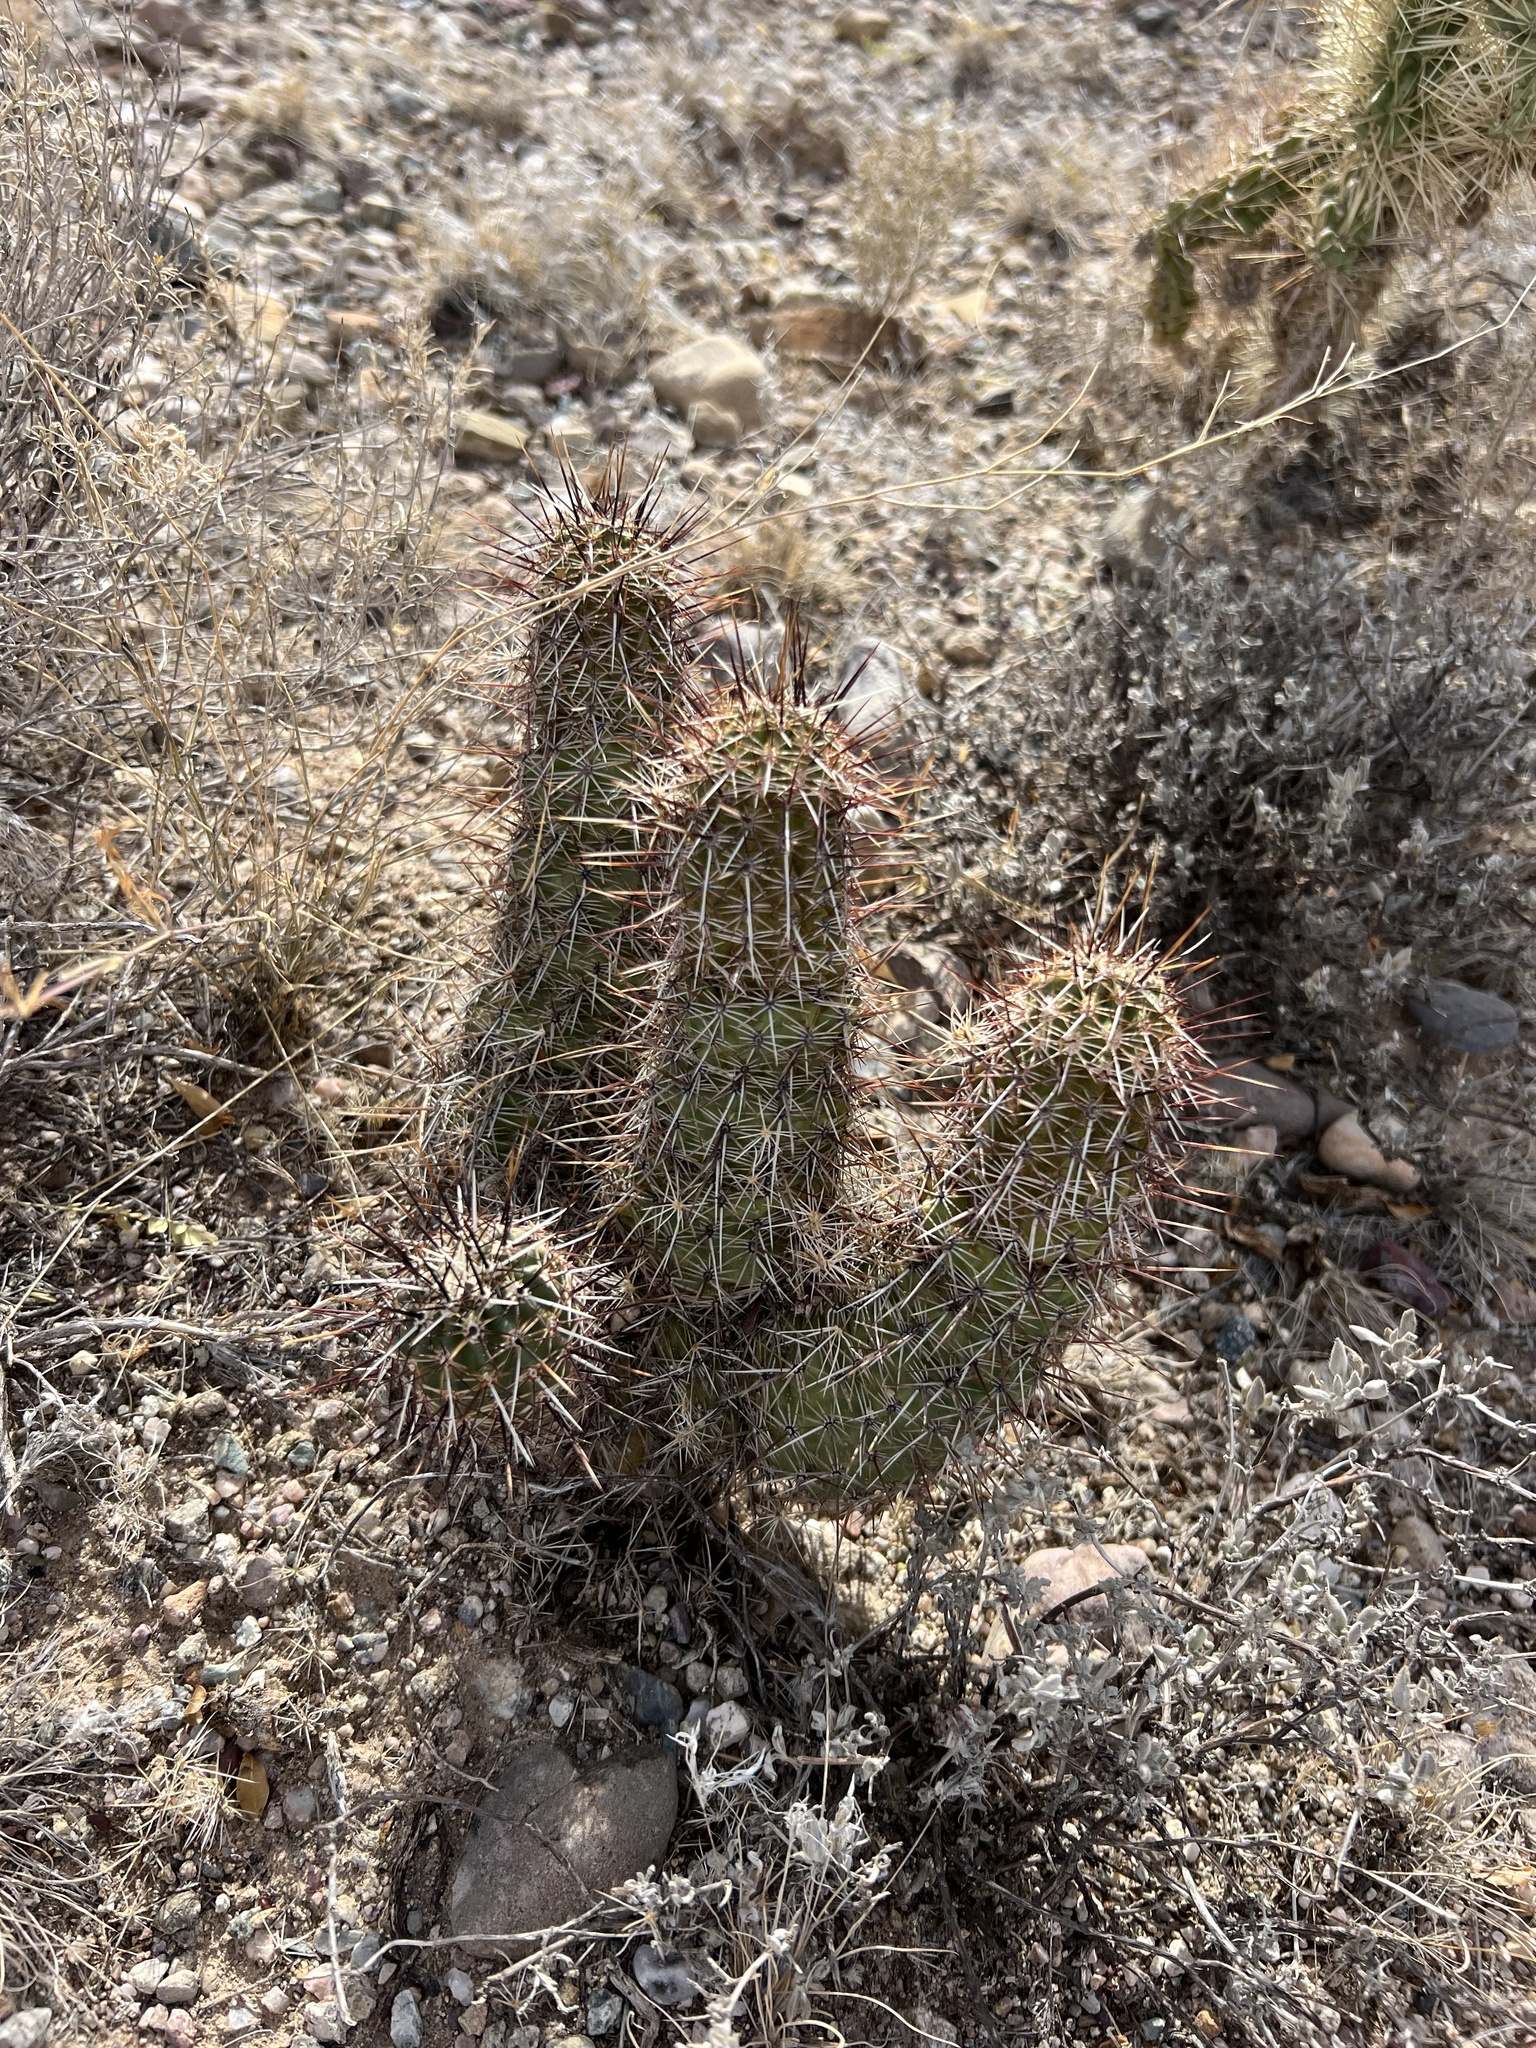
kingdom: Plantae
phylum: Tracheophyta
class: Magnoliopsida
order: Caryophyllales
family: Cactaceae
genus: Echinocereus
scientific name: Echinocereus fasciculatus
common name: Bundle hedgehog
